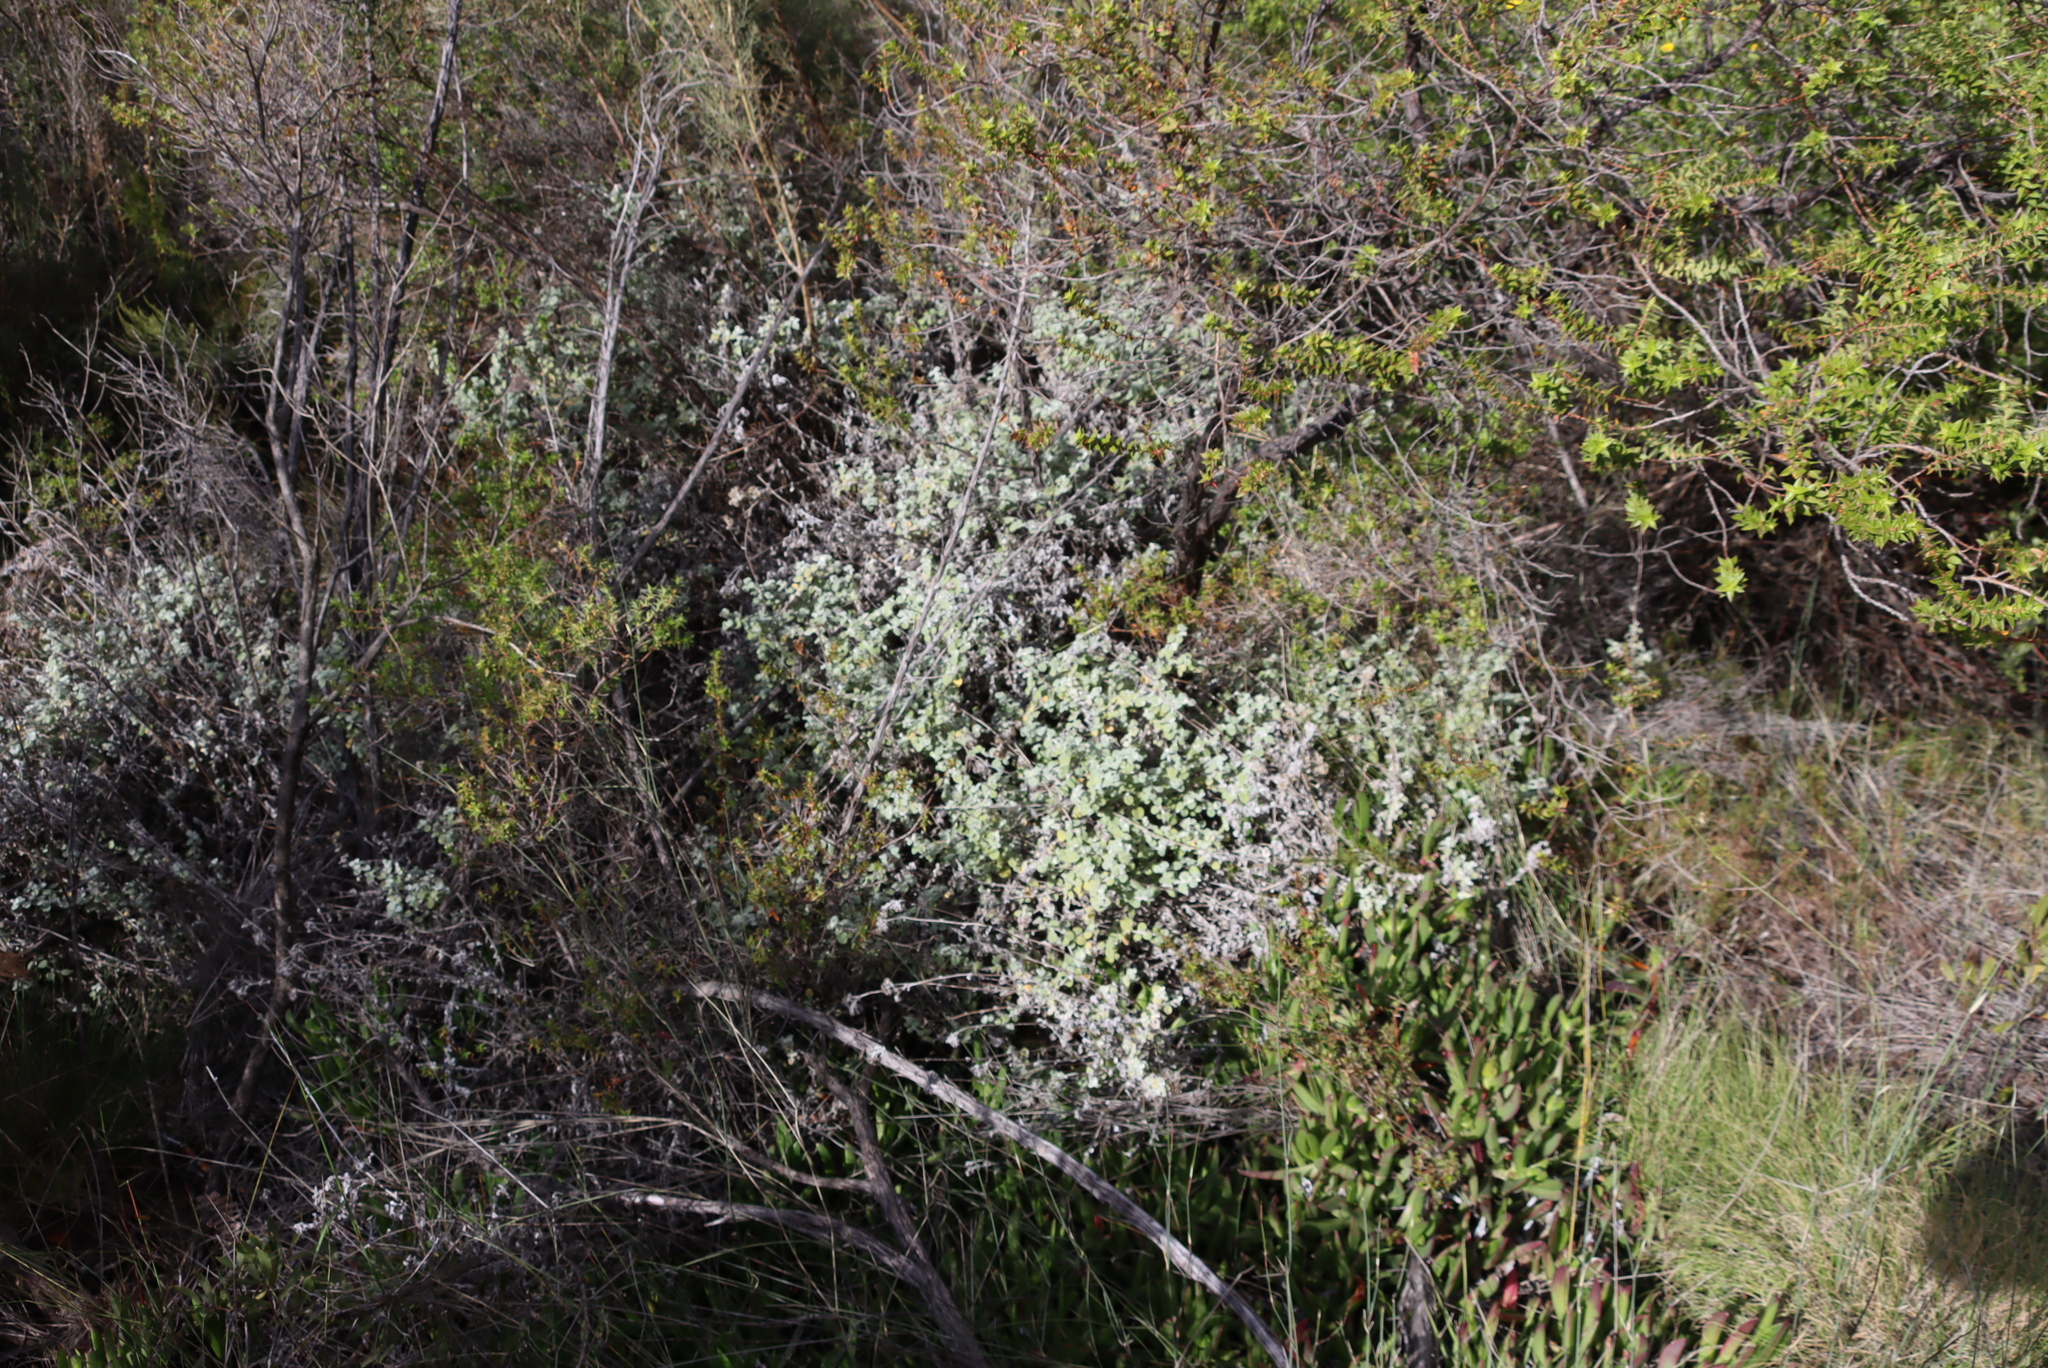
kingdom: Plantae
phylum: Tracheophyta
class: Magnoliopsida
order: Asterales
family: Asteraceae
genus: Helichrysum
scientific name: Helichrysum petiolare
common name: Licorice-plant
